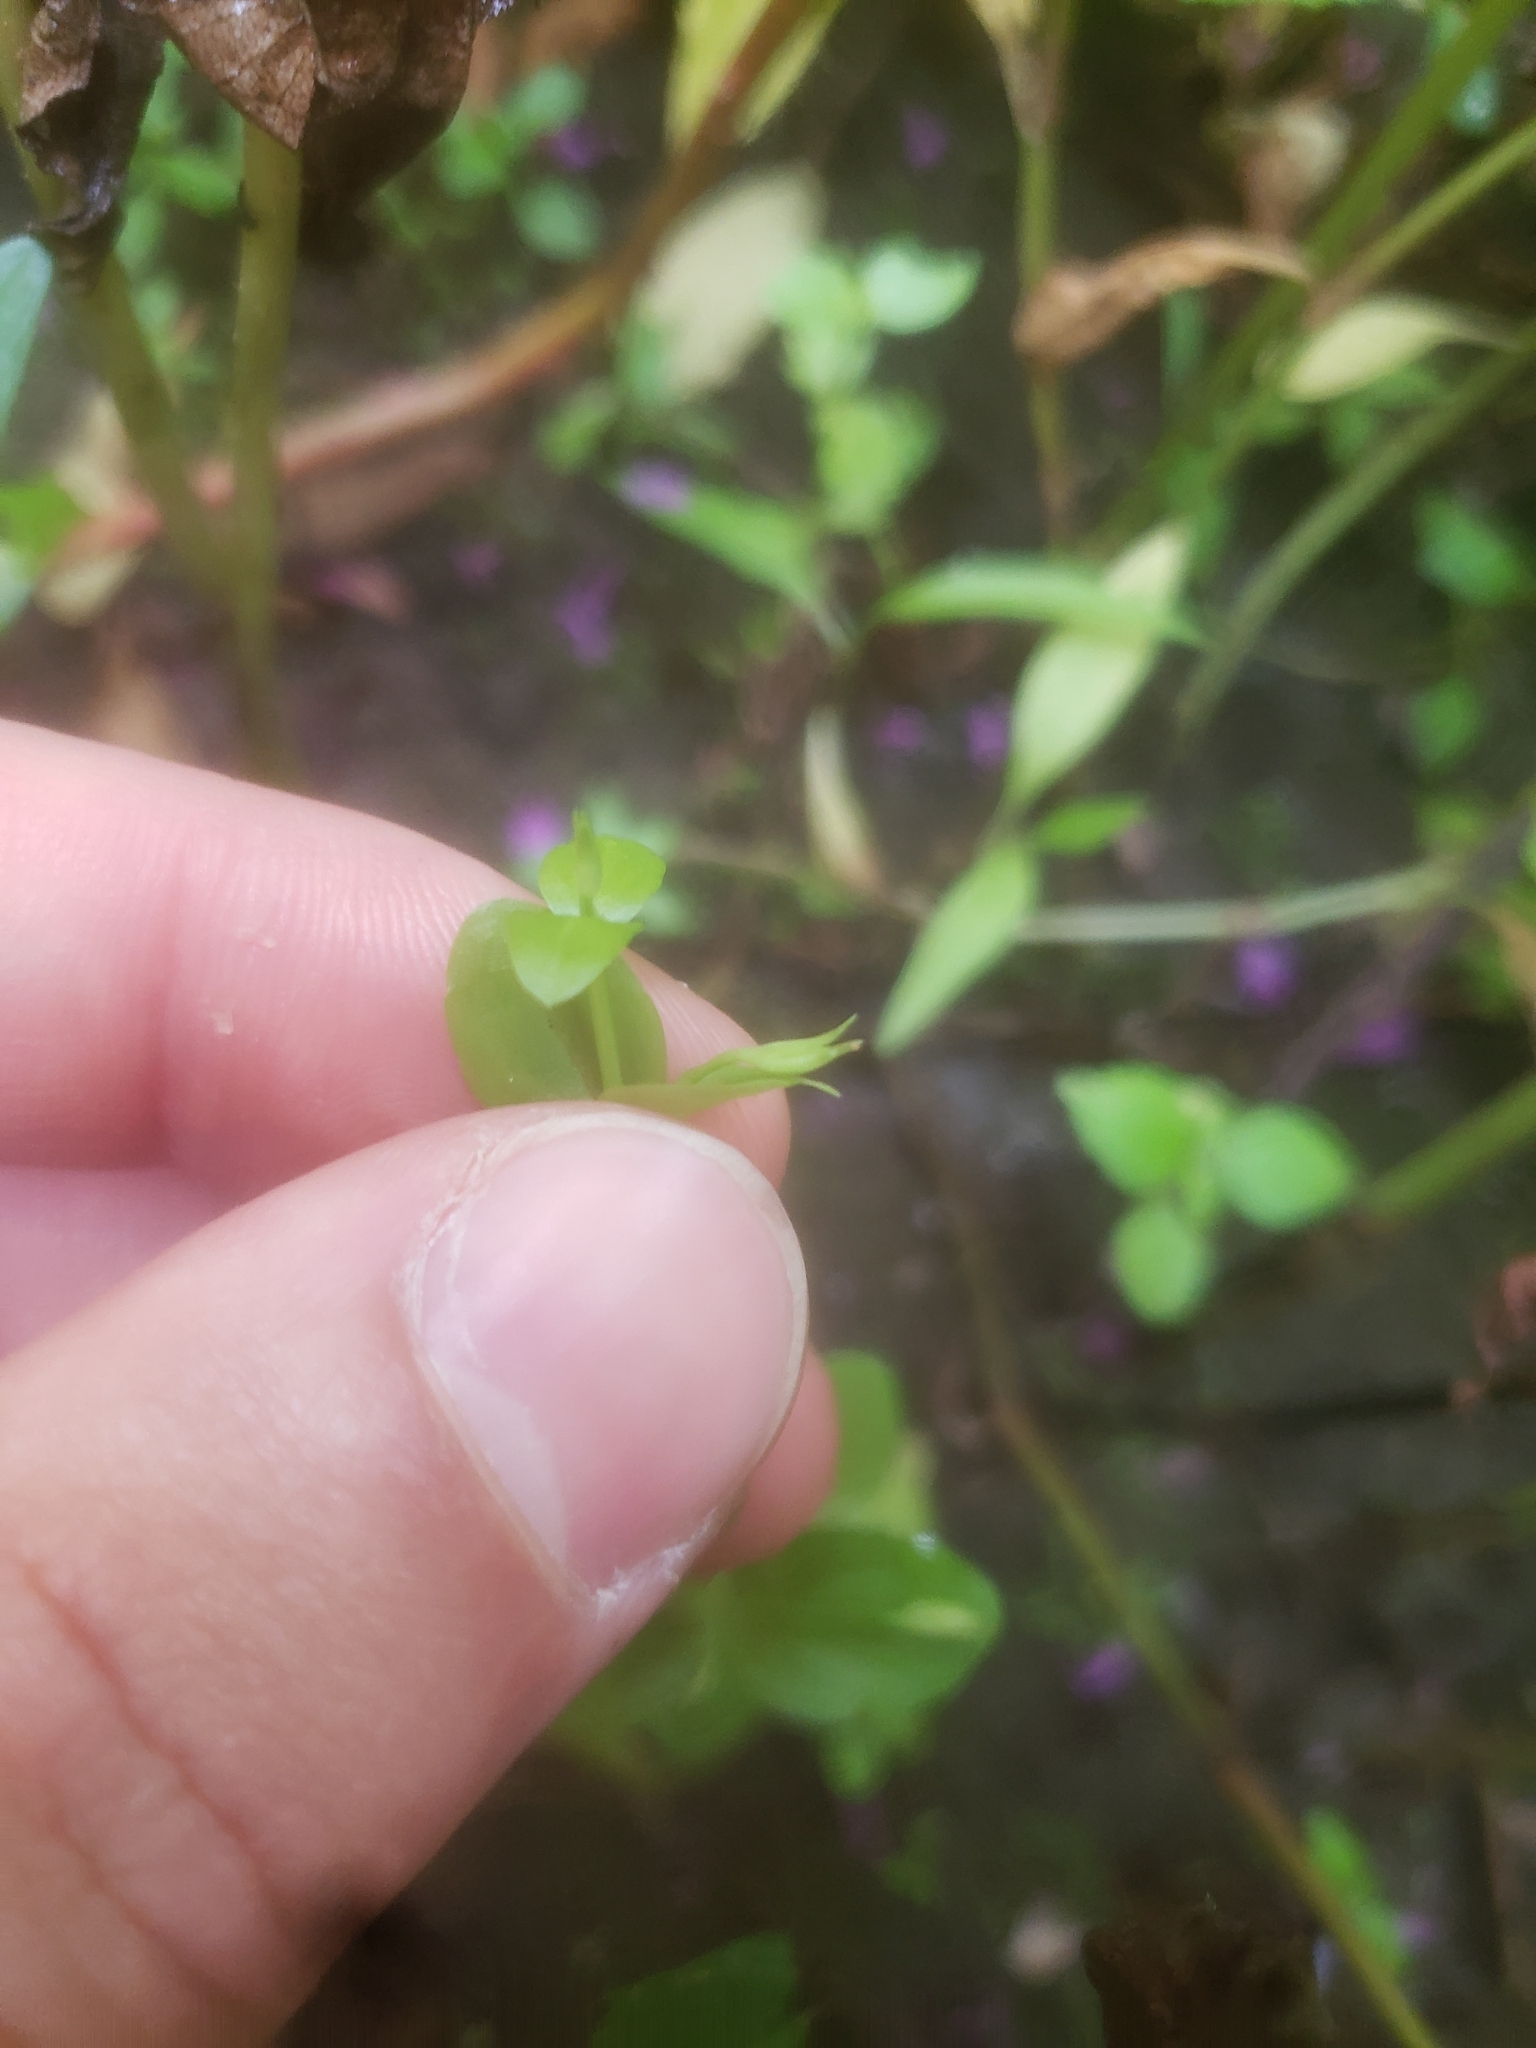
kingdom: Plantae
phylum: Tracheophyta
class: Magnoliopsida
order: Lamiales
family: Linderniaceae
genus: Lindernia
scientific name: Lindernia dubia
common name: Annual false pimpernel
